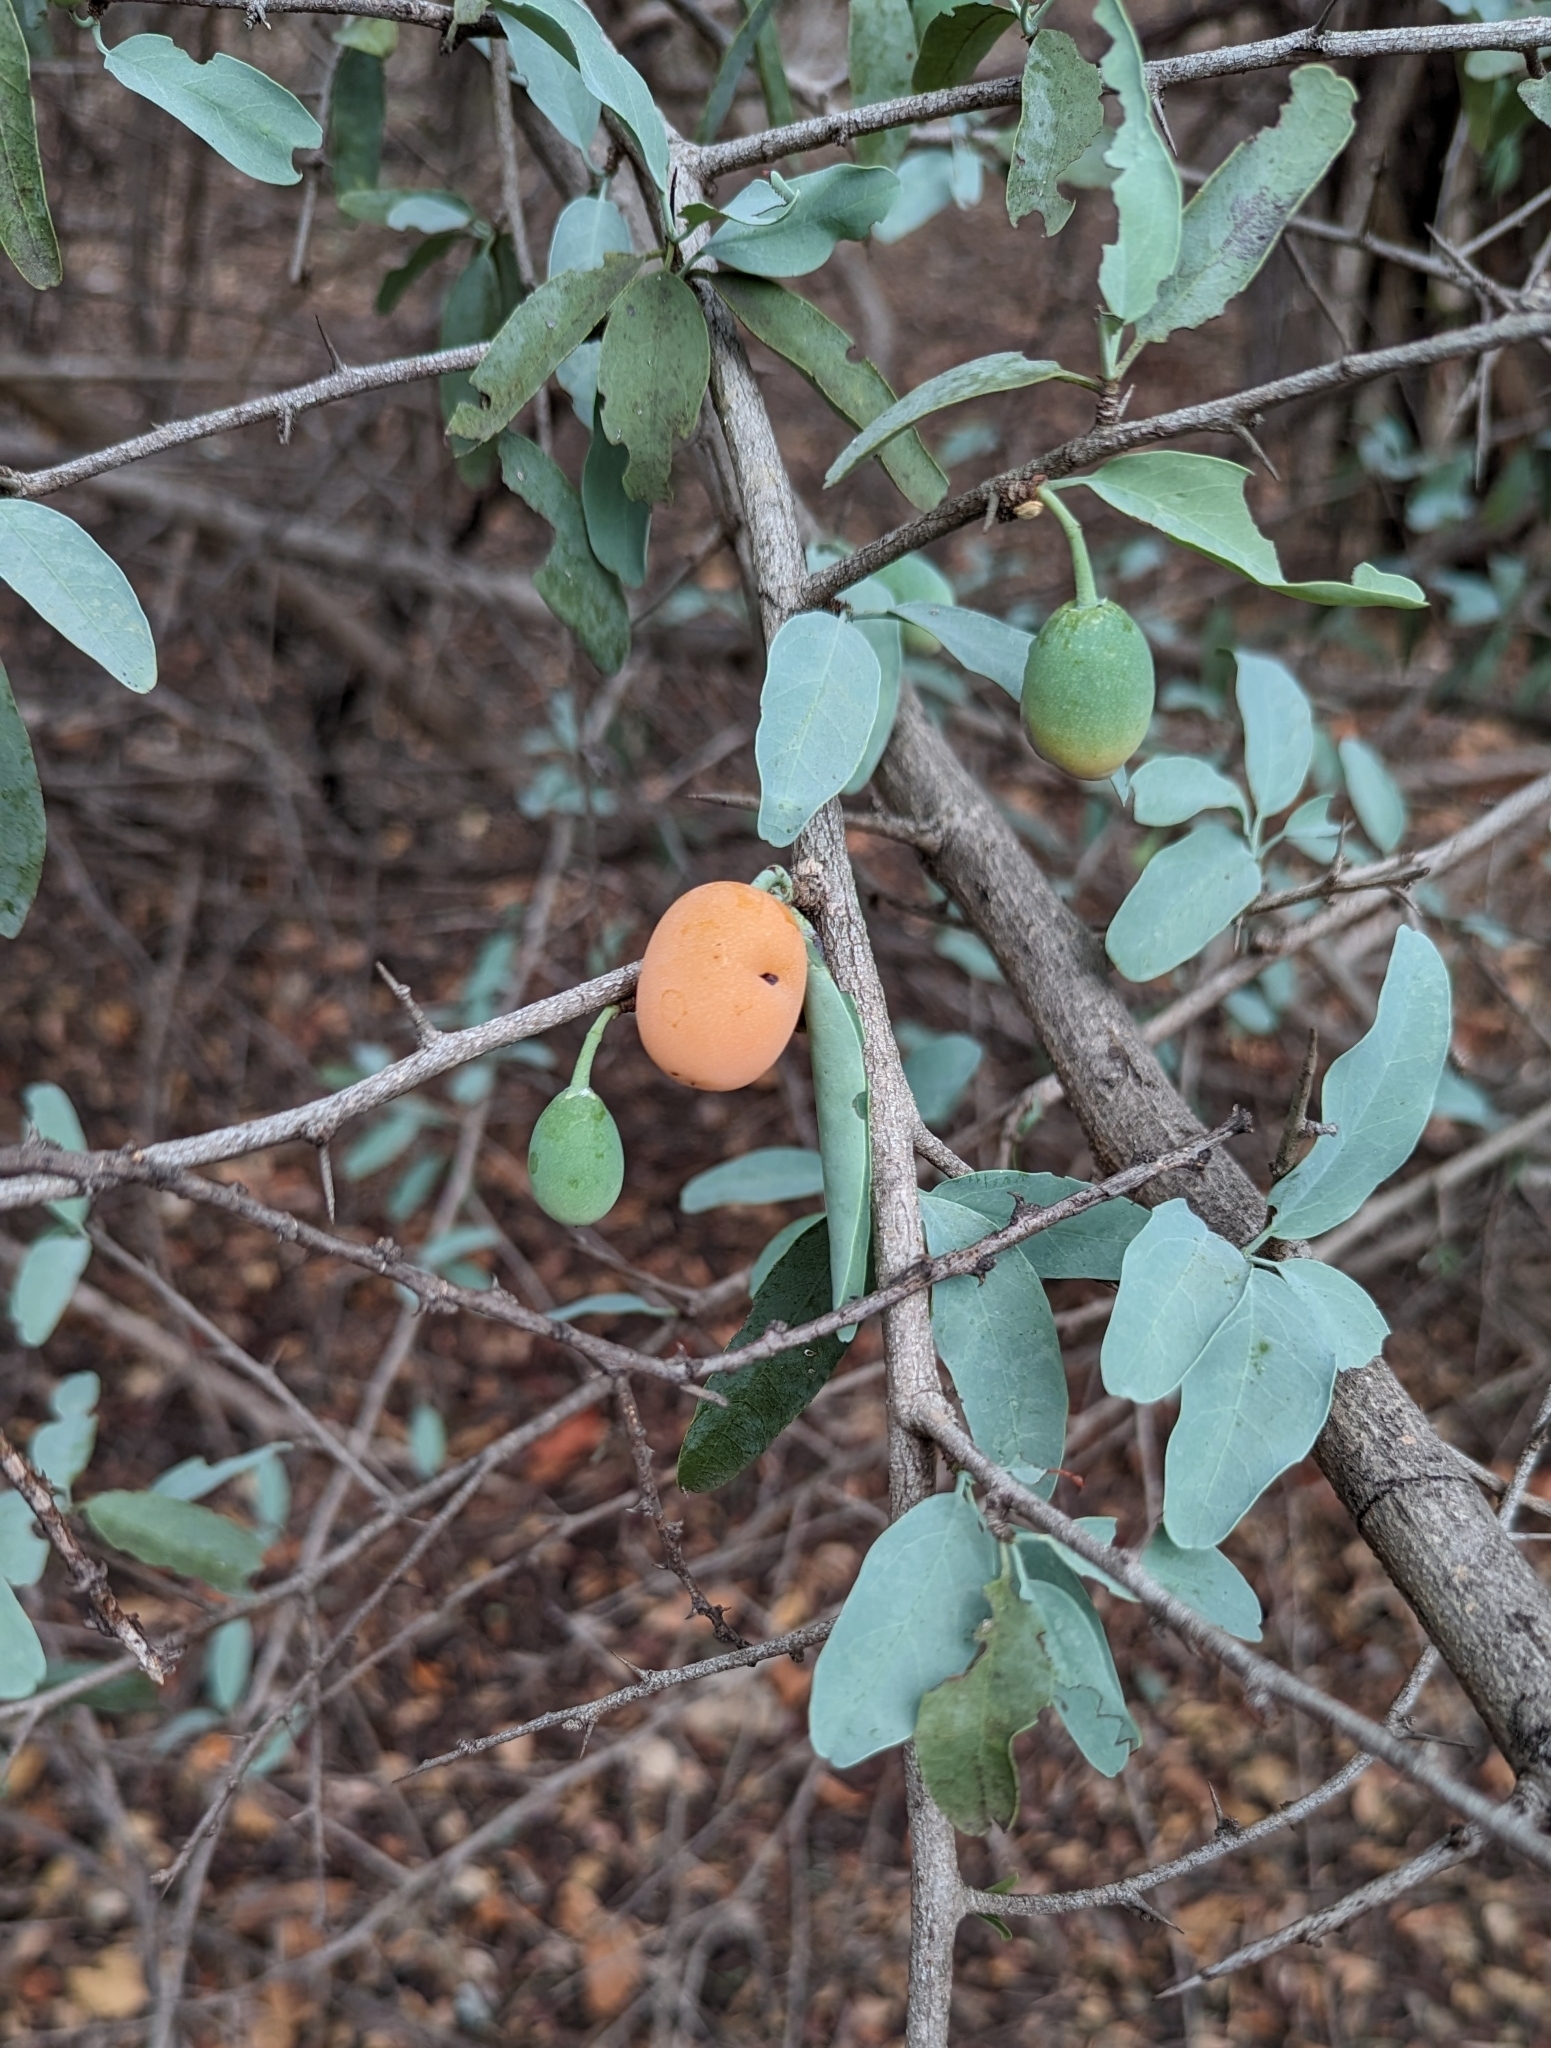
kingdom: Plantae
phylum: Tracheophyta
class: Magnoliopsida
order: Santalales
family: Ximeniaceae
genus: Ximenia
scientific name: Ximenia americana
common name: Tallowwood
